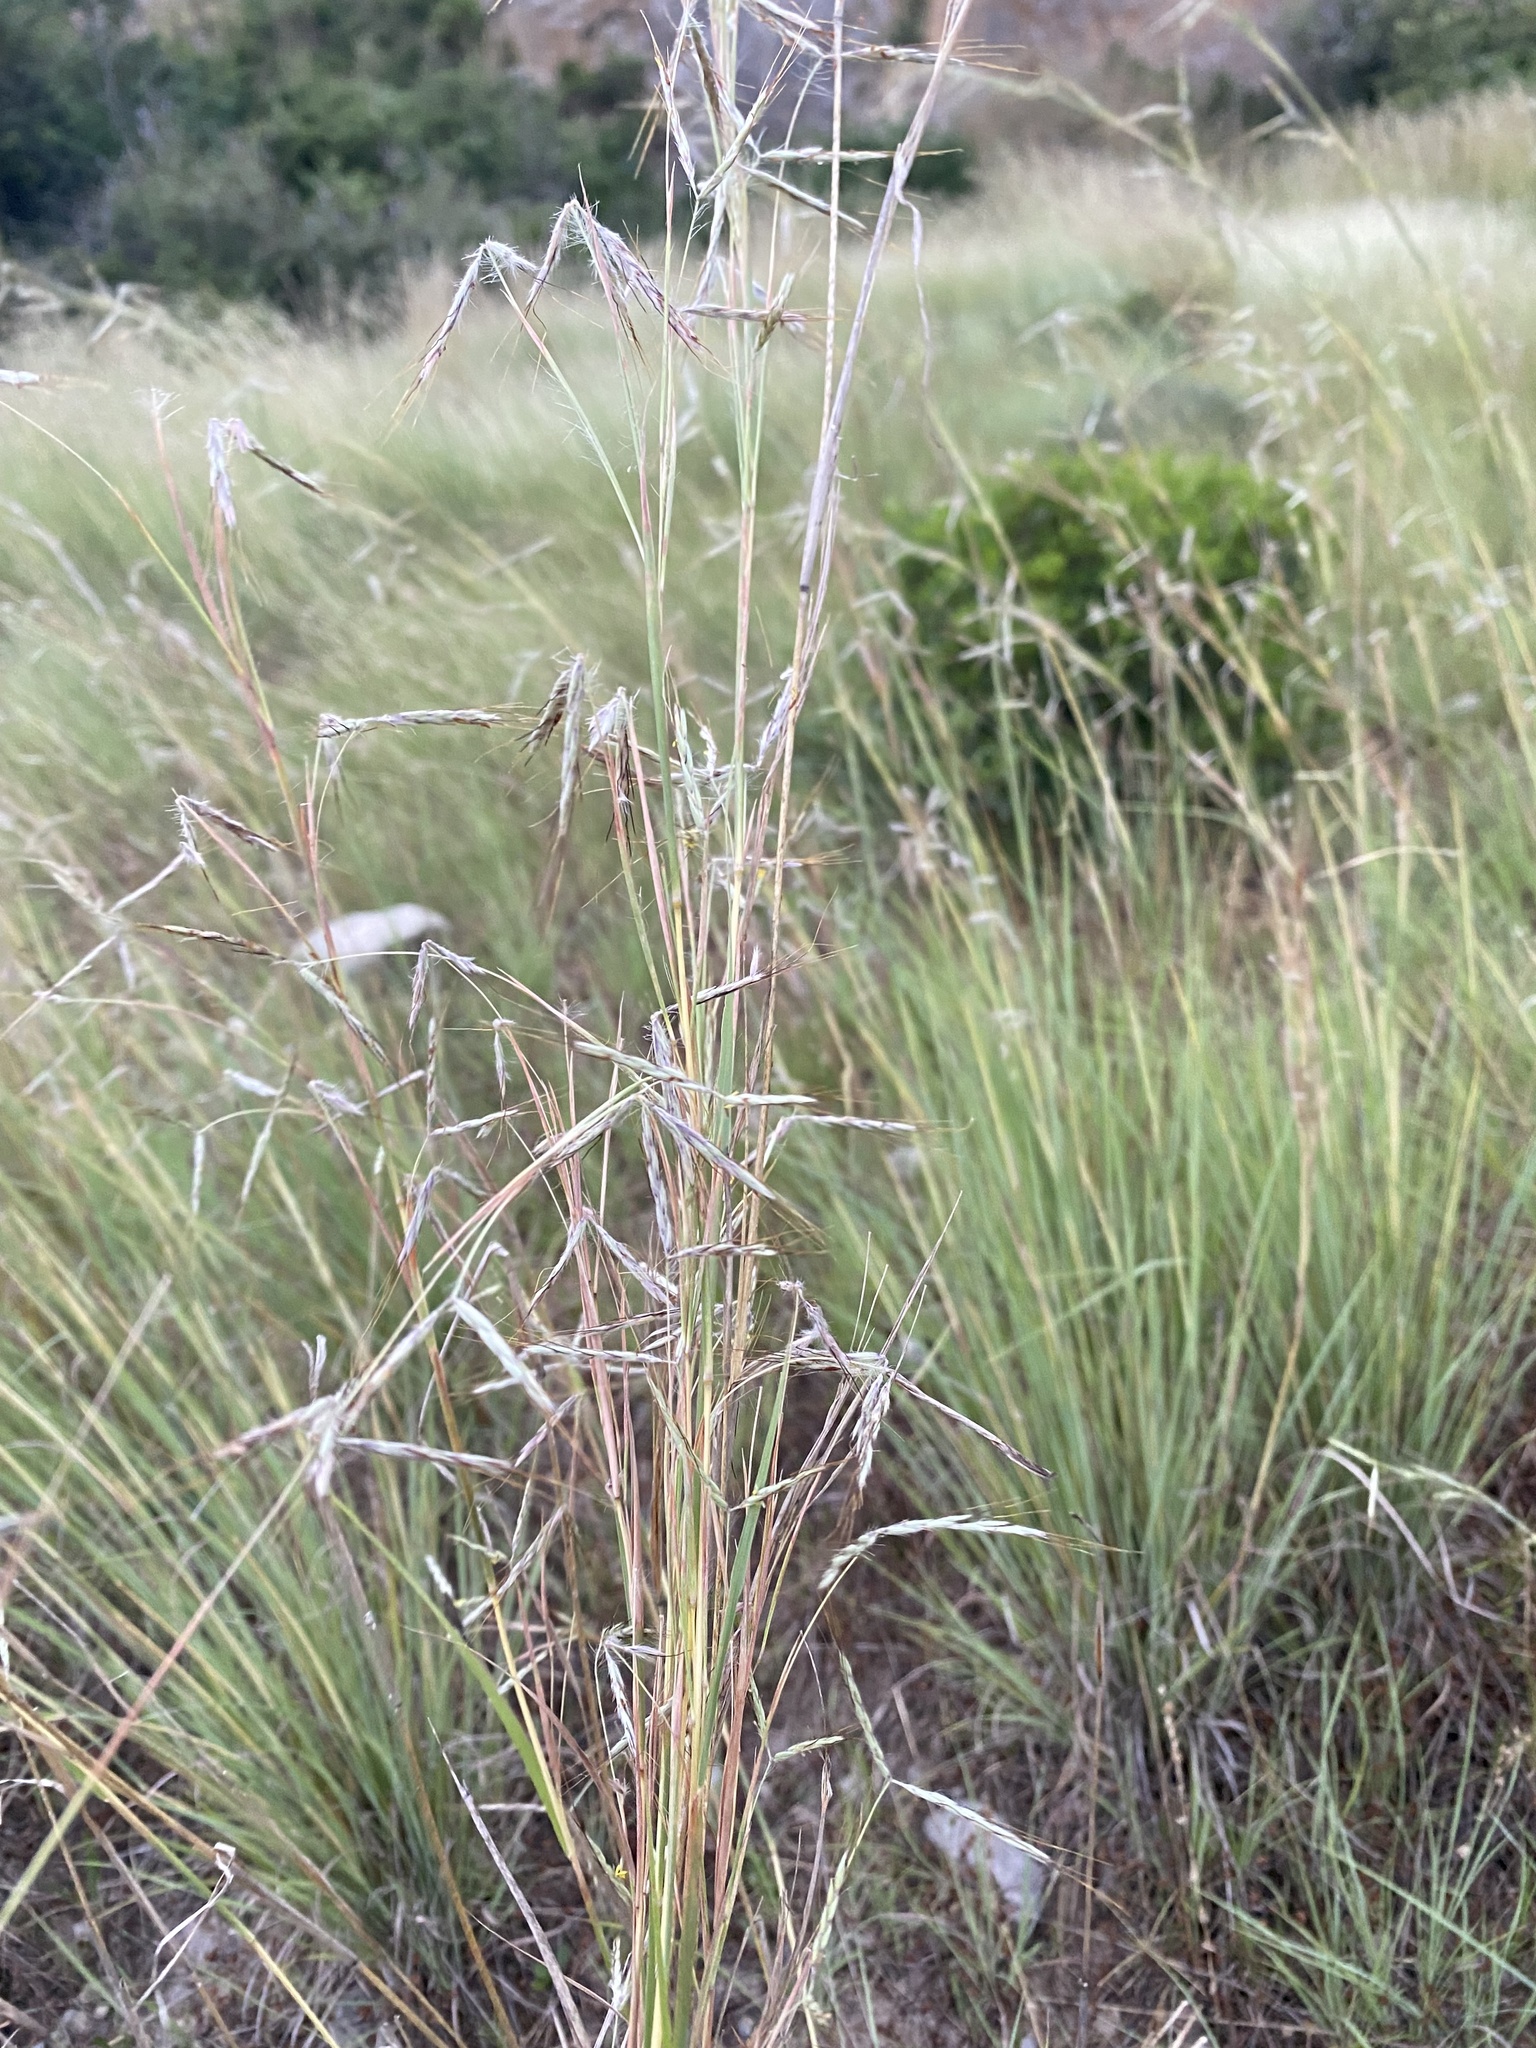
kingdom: Plantae
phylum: Tracheophyta
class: Liliopsida
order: Poales
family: Poaceae
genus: Hyparrhenia
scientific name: Hyparrhenia hirta
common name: Thatching grass
